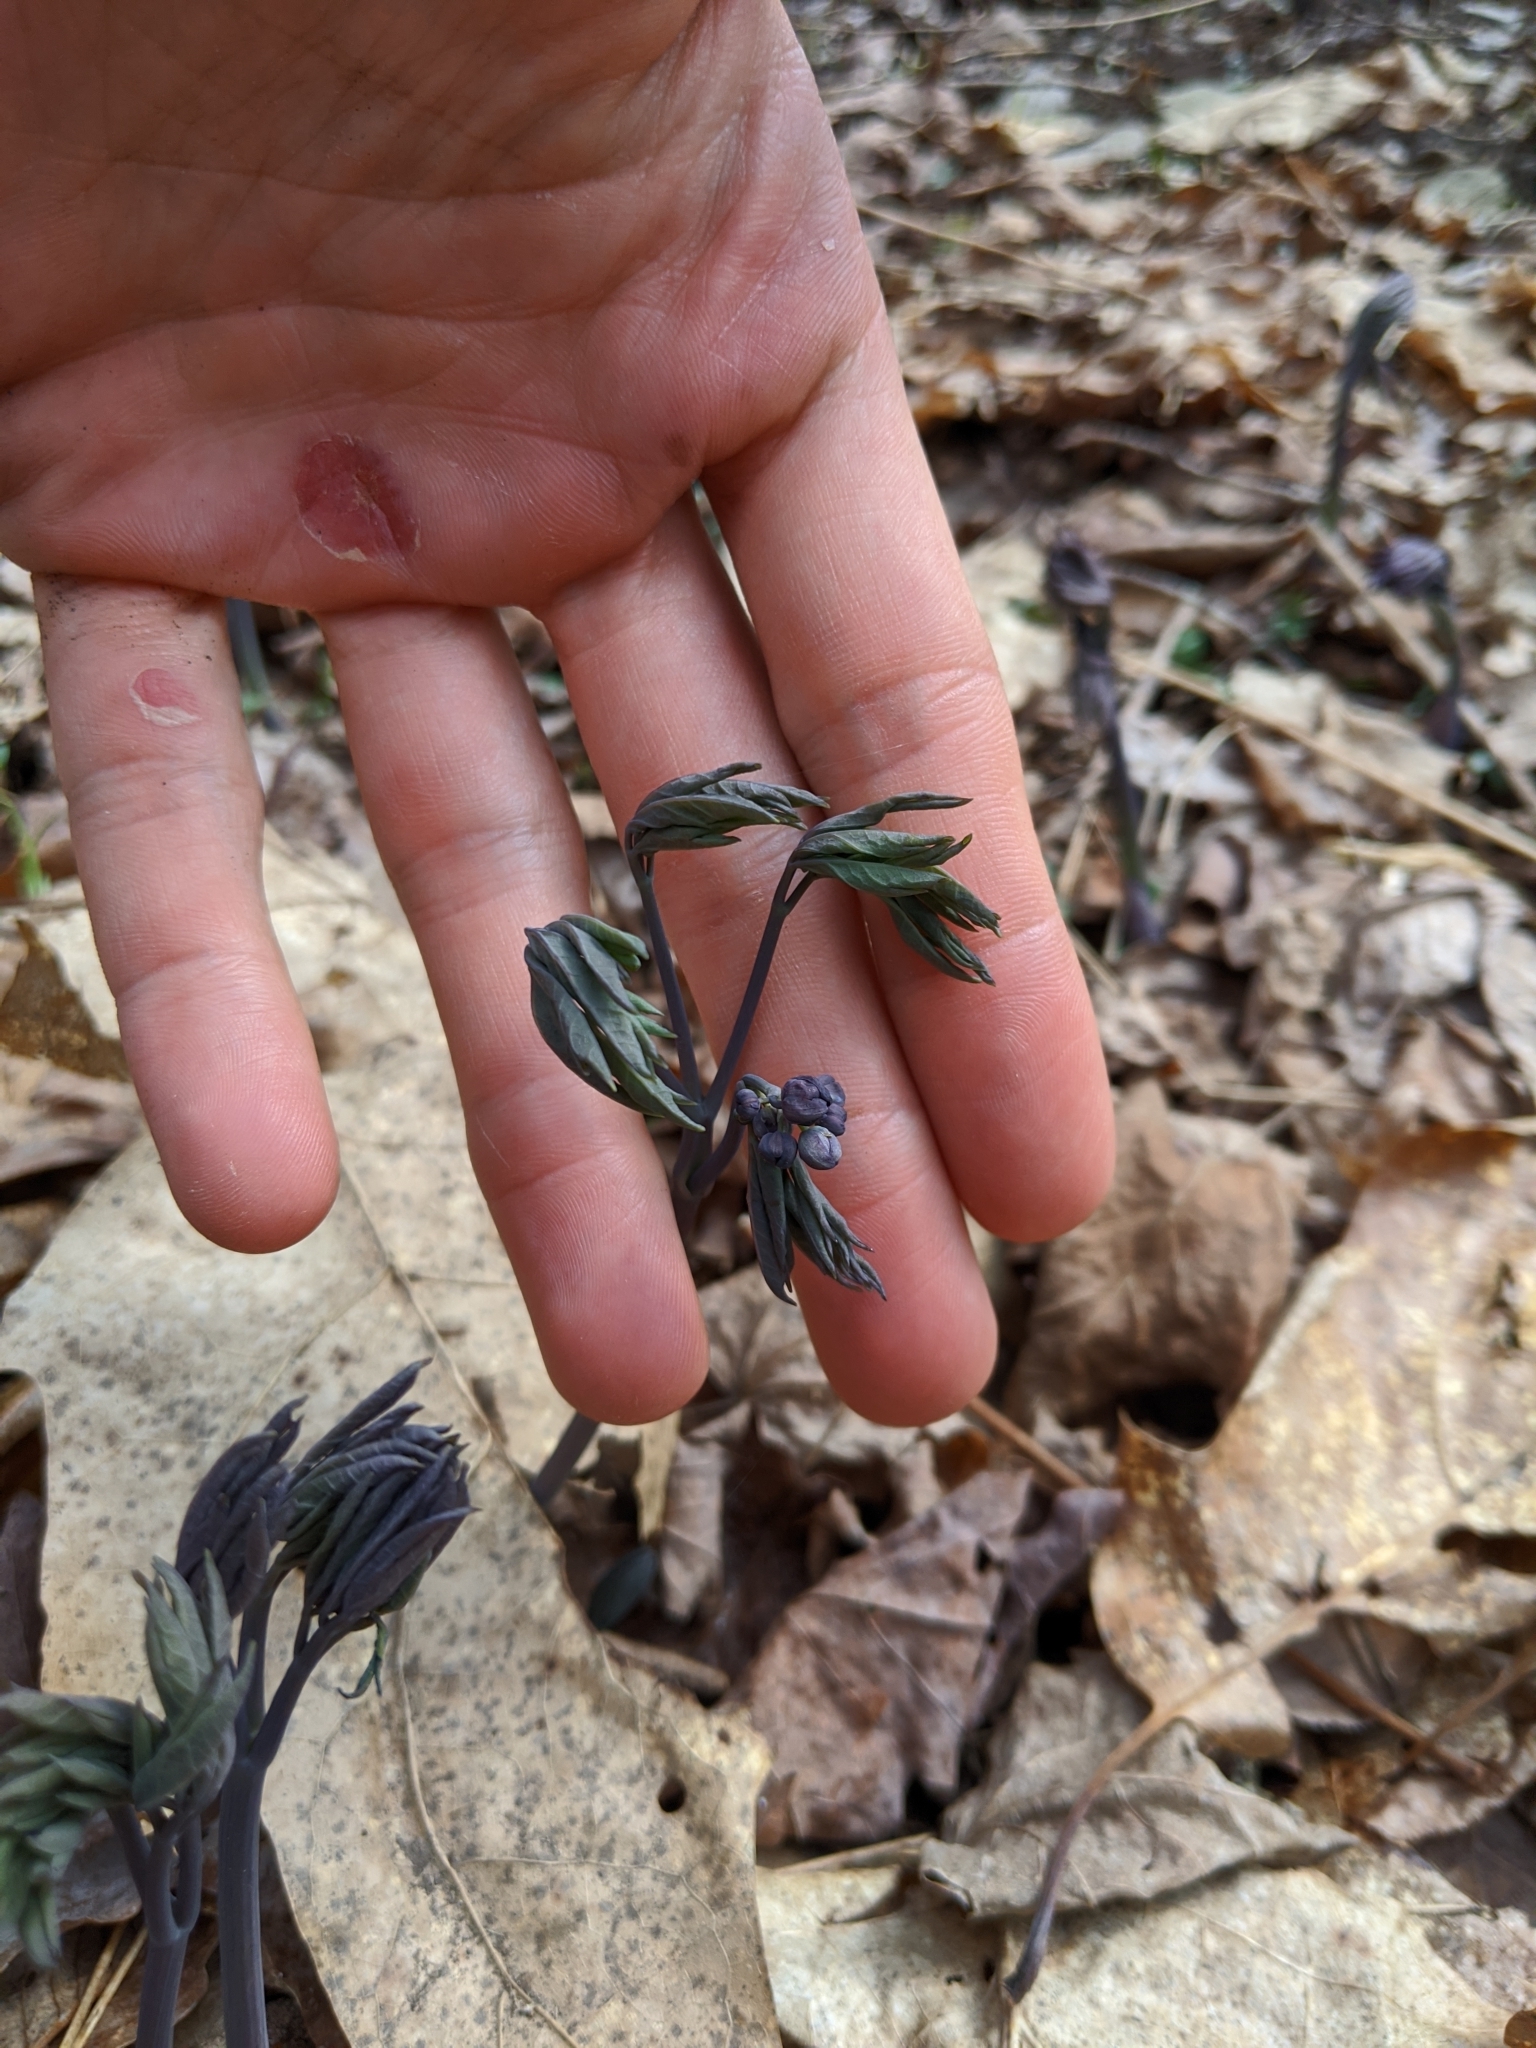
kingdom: Plantae
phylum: Tracheophyta
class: Magnoliopsida
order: Ranunculales
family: Berberidaceae
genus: Caulophyllum
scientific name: Caulophyllum giganteum
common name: Blue cohosh
